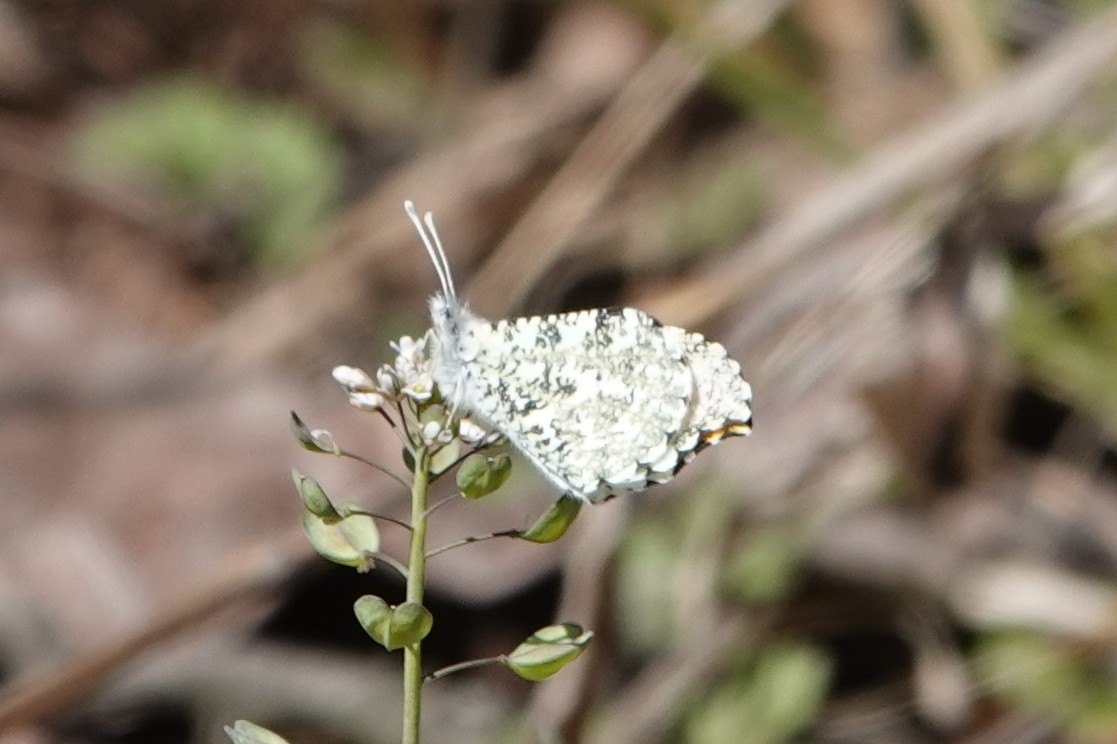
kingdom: Animalia
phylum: Arthropoda
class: Insecta
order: Lepidoptera
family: Pieridae
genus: Anthocharis
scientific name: Anthocharis midea
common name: Falcate orangetip
